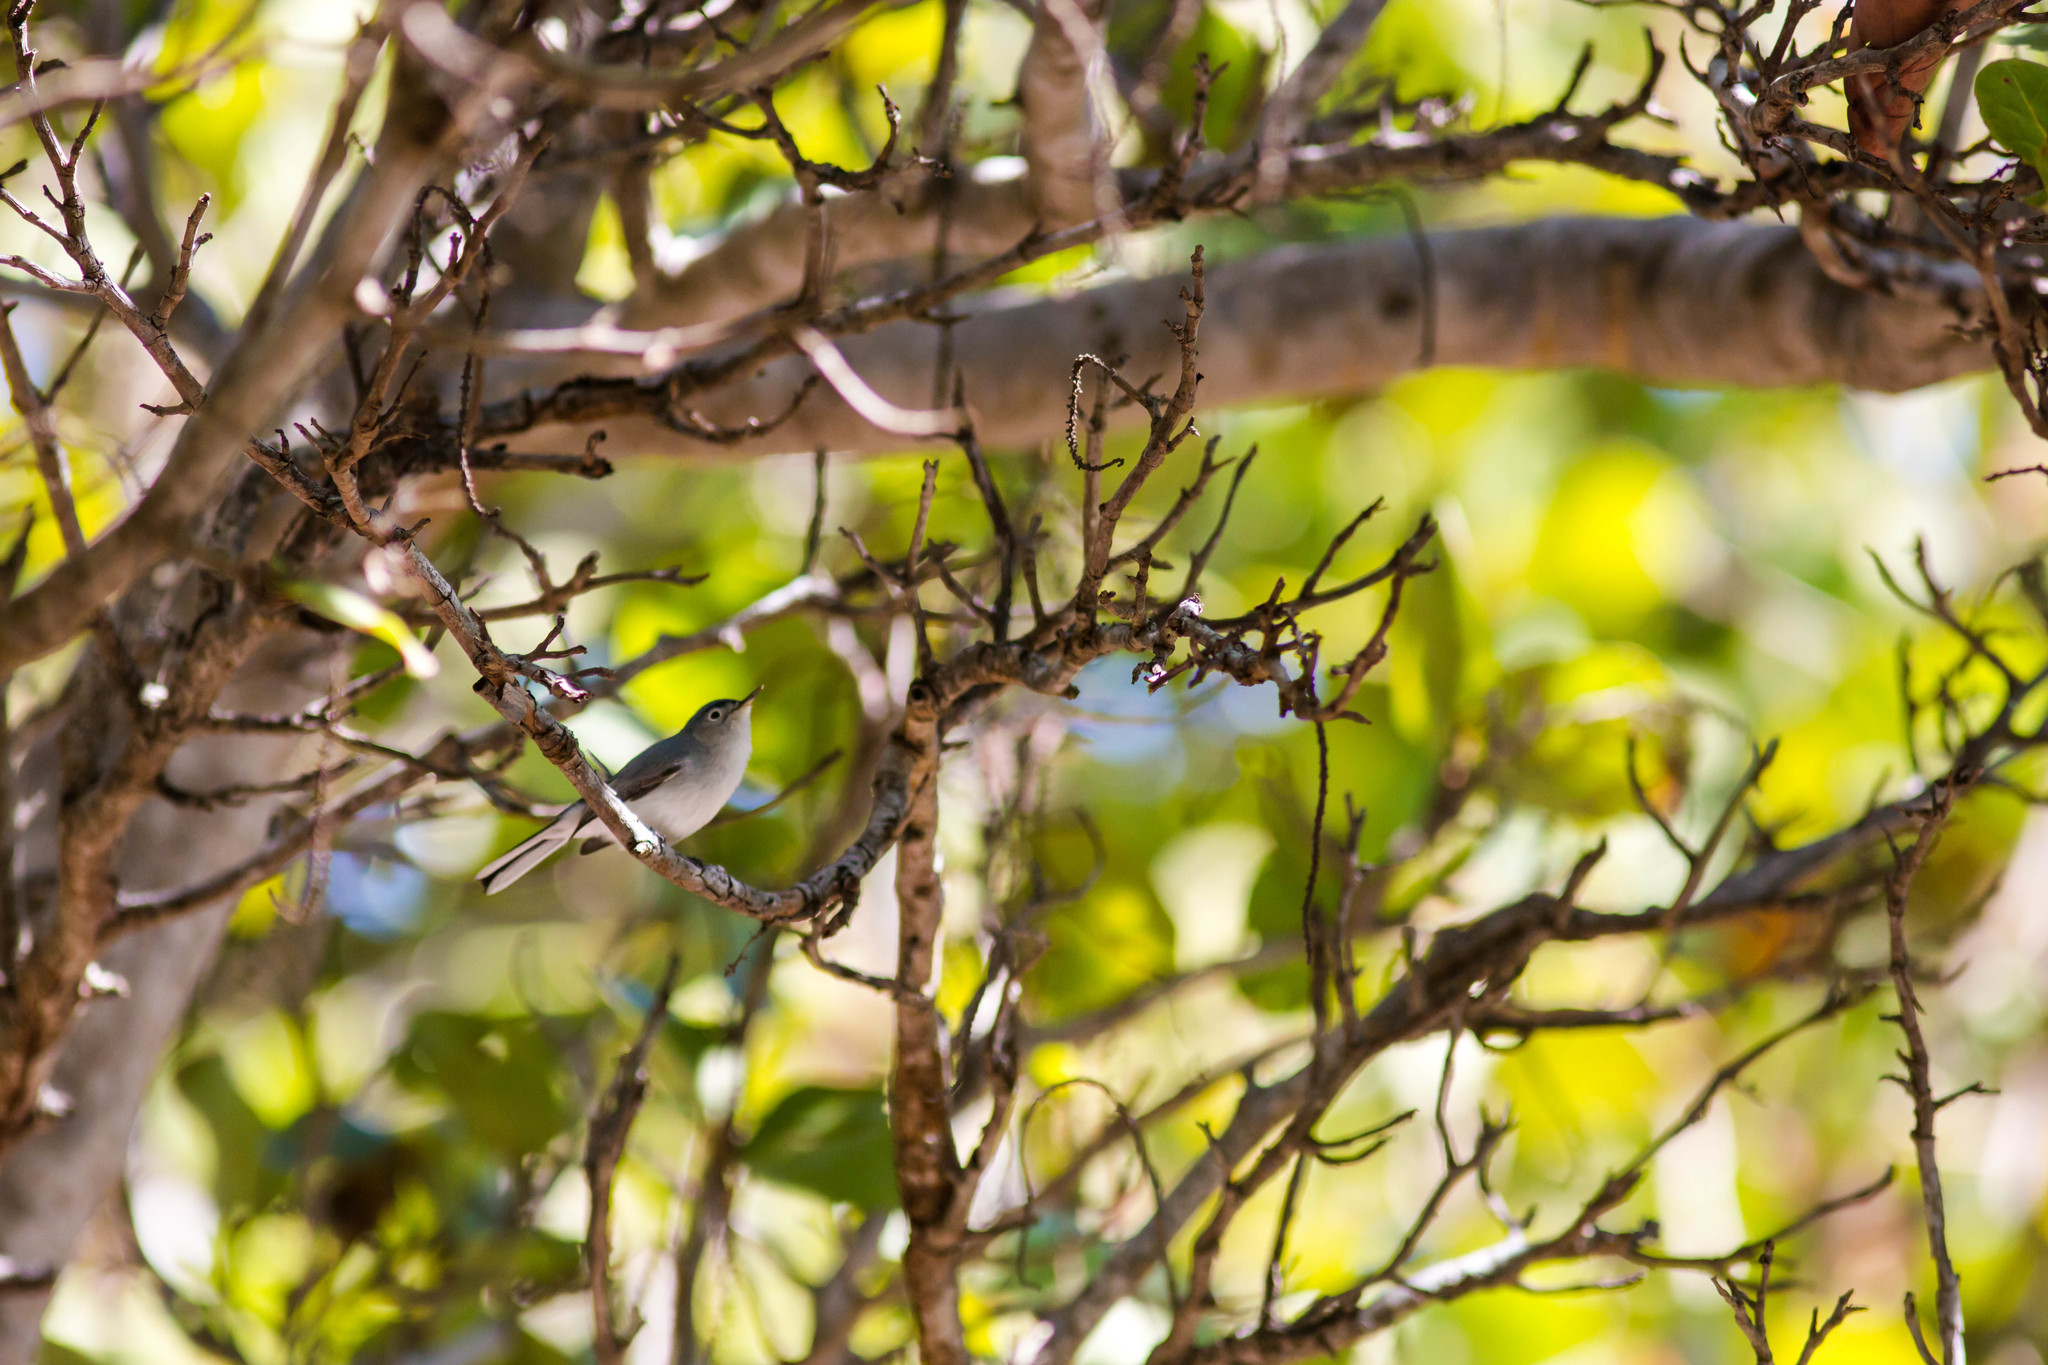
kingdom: Animalia
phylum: Chordata
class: Aves
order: Passeriformes
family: Polioptilidae
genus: Polioptila
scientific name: Polioptila caerulea
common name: Blue-gray gnatcatcher
